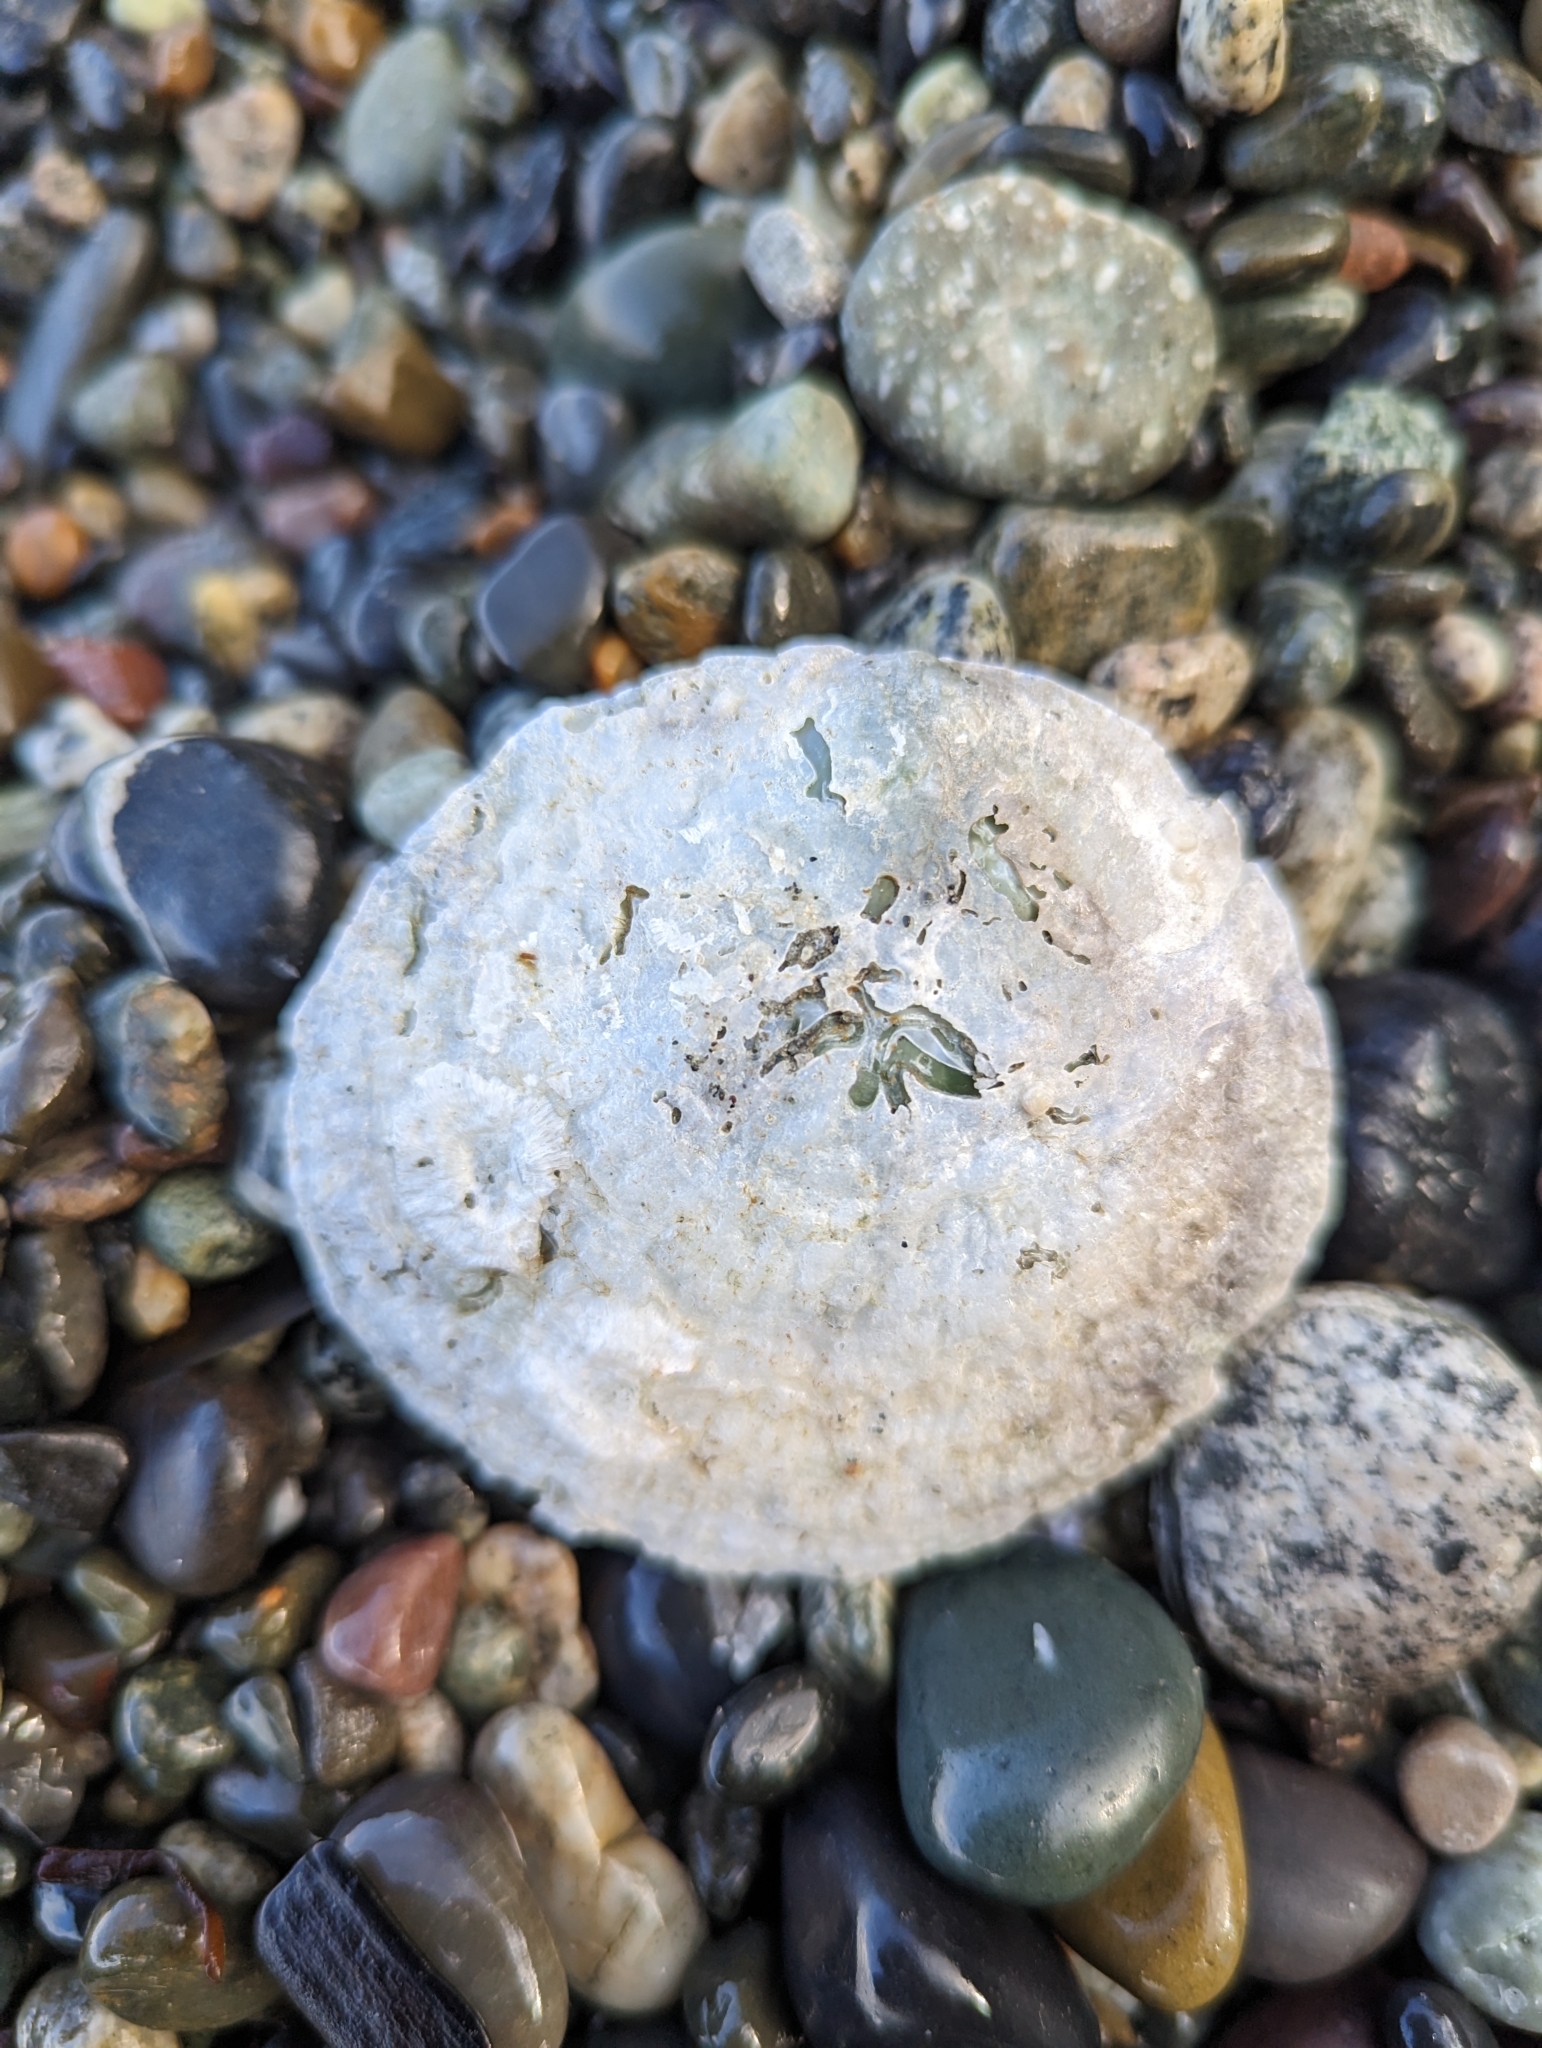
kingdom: Animalia
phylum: Mollusca
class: Bivalvia
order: Pectinida
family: Anomiidae
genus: Pododesmus
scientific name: Pododesmus macrochisma
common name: Alaska jingle
